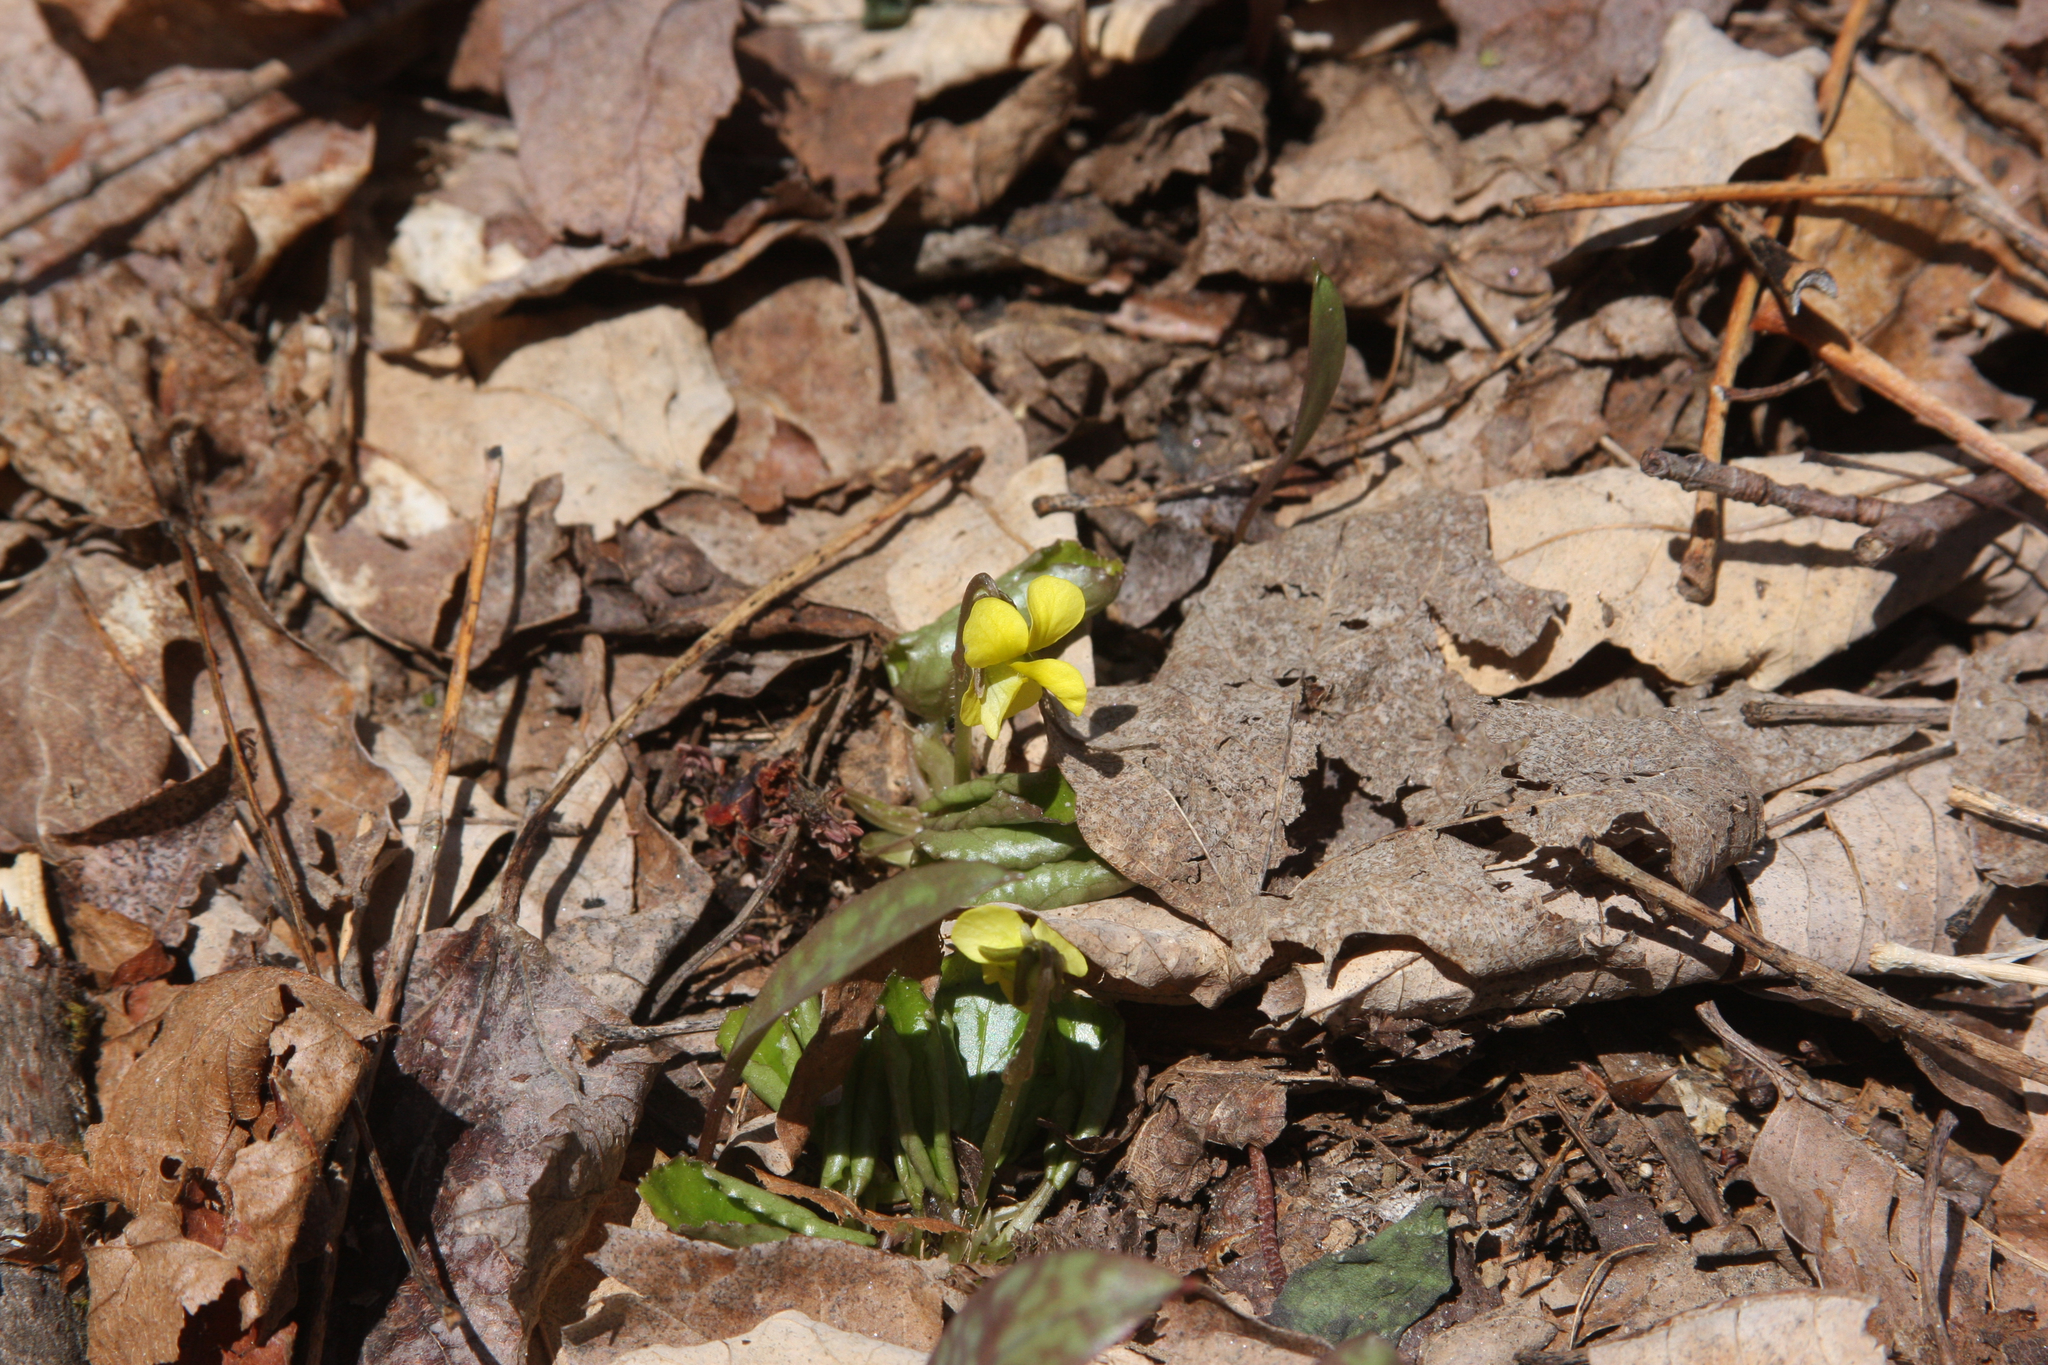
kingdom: Plantae
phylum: Tracheophyta
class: Magnoliopsida
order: Malpighiales
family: Violaceae
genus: Viola
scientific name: Viola rotundifolia
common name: Early yellow violet
